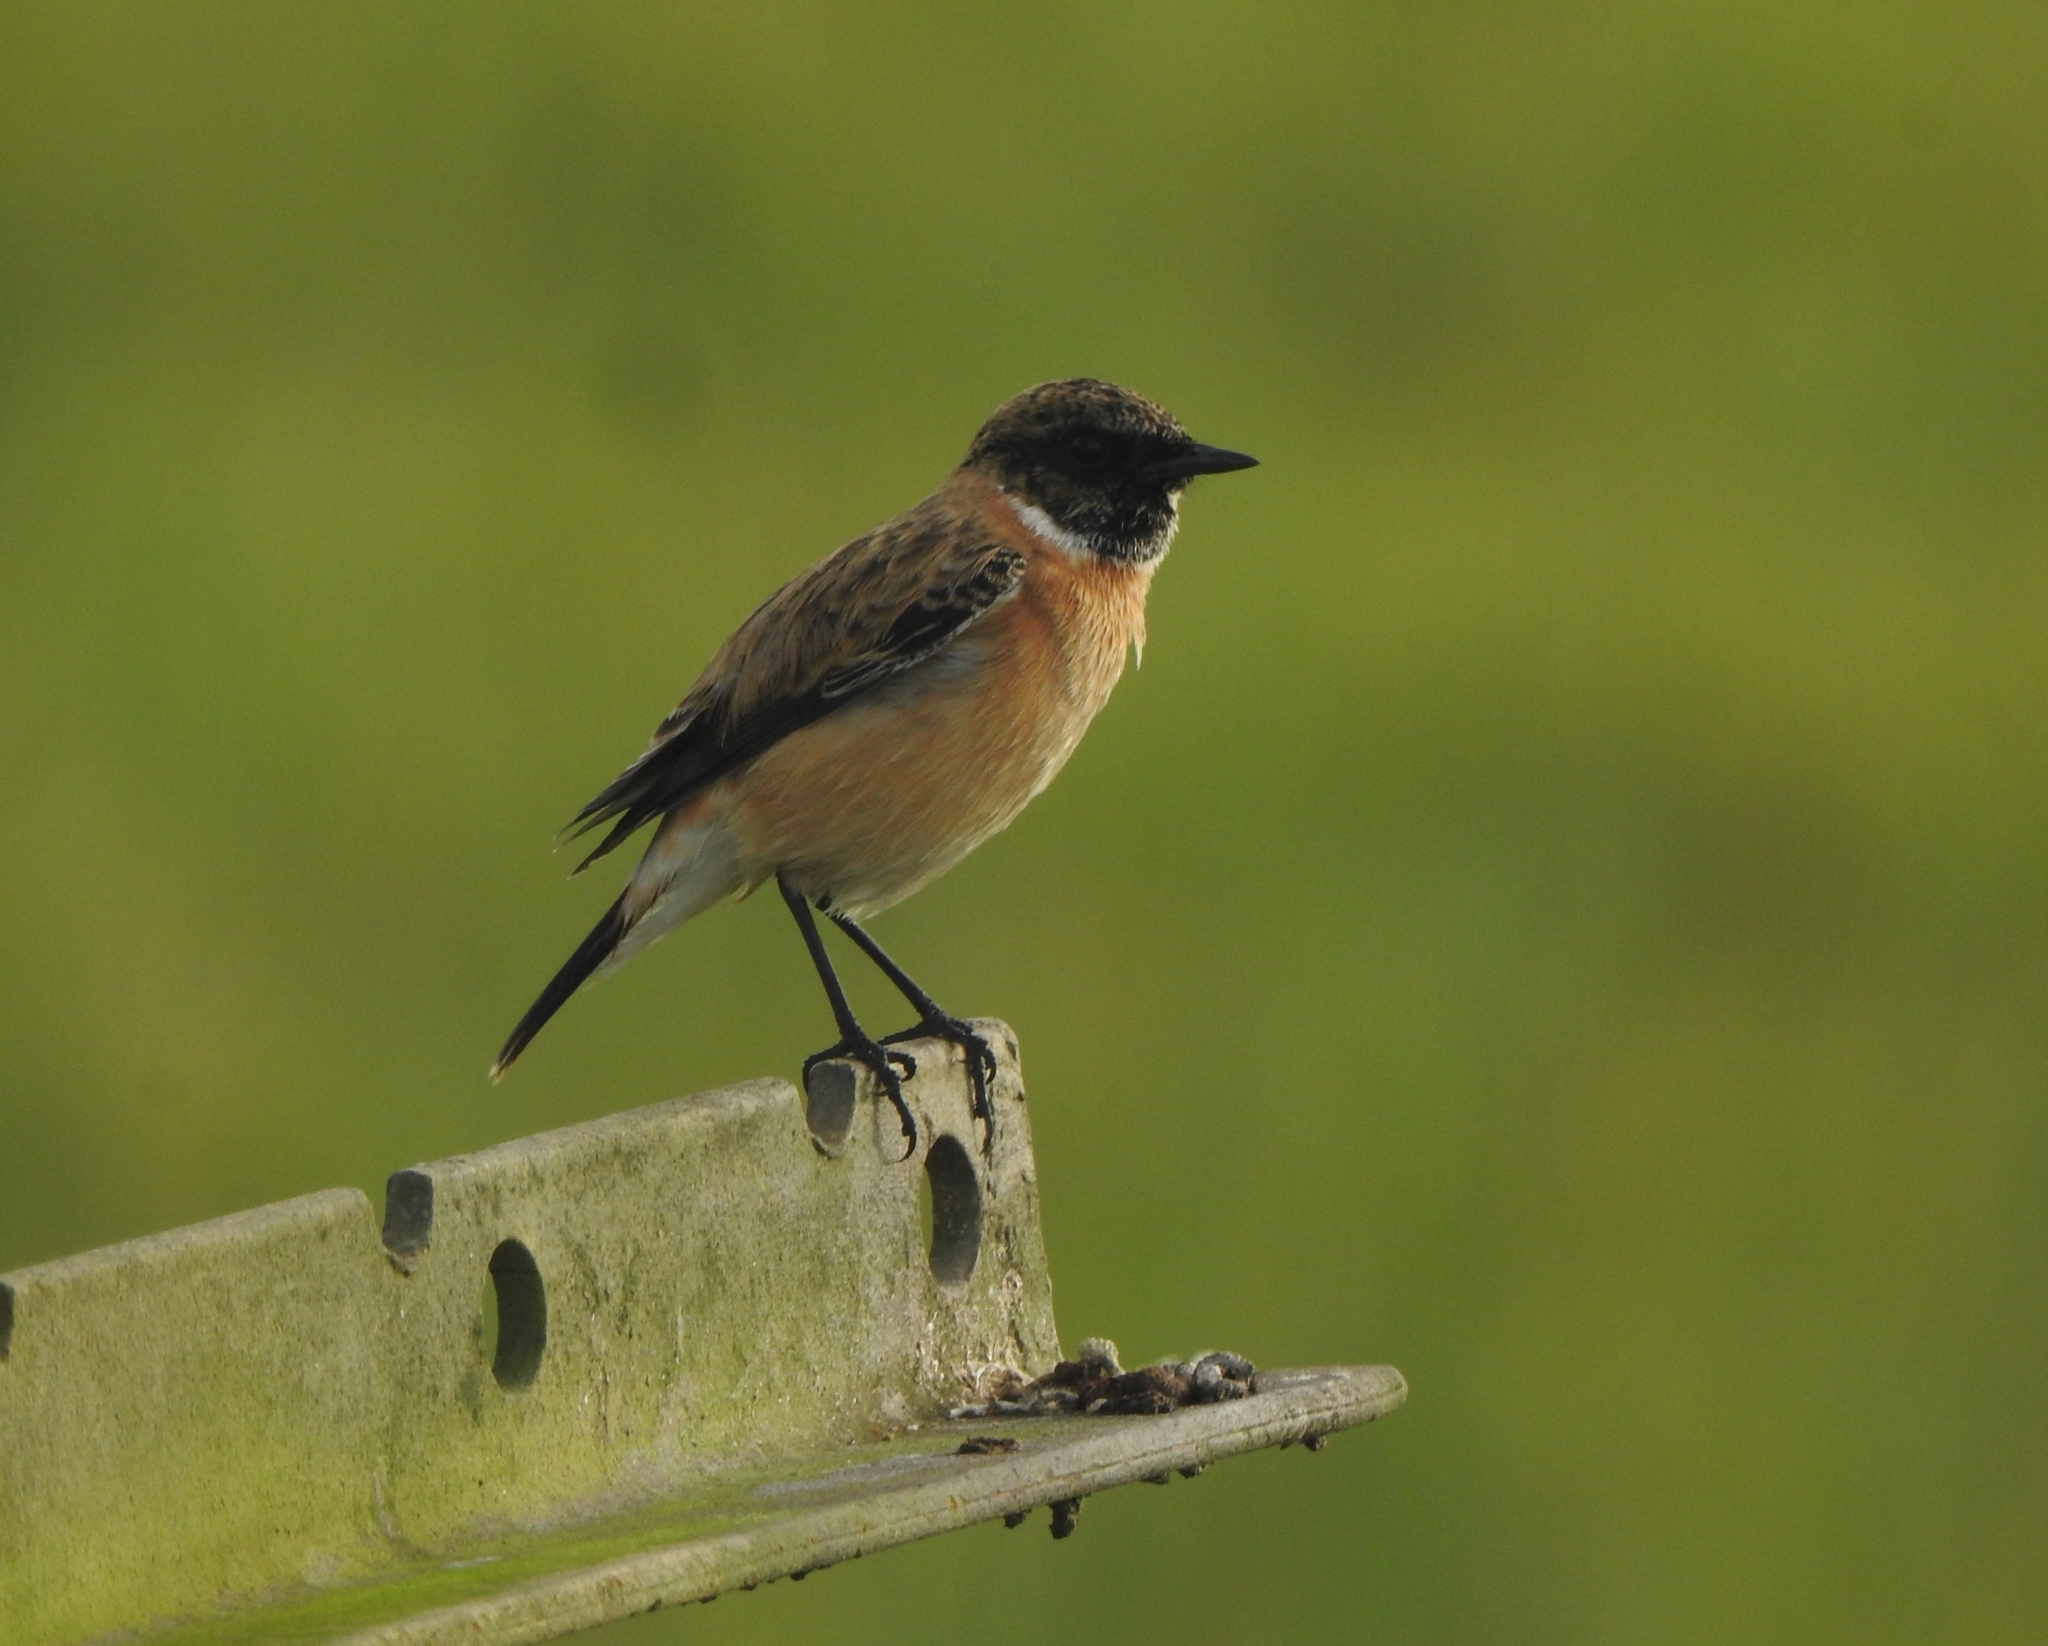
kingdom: Animalia
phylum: Chordata
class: Aves
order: Passeriformes
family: Muscicapidae
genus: Saxicola
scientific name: Saxicola maurus
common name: Siberian stonechat
